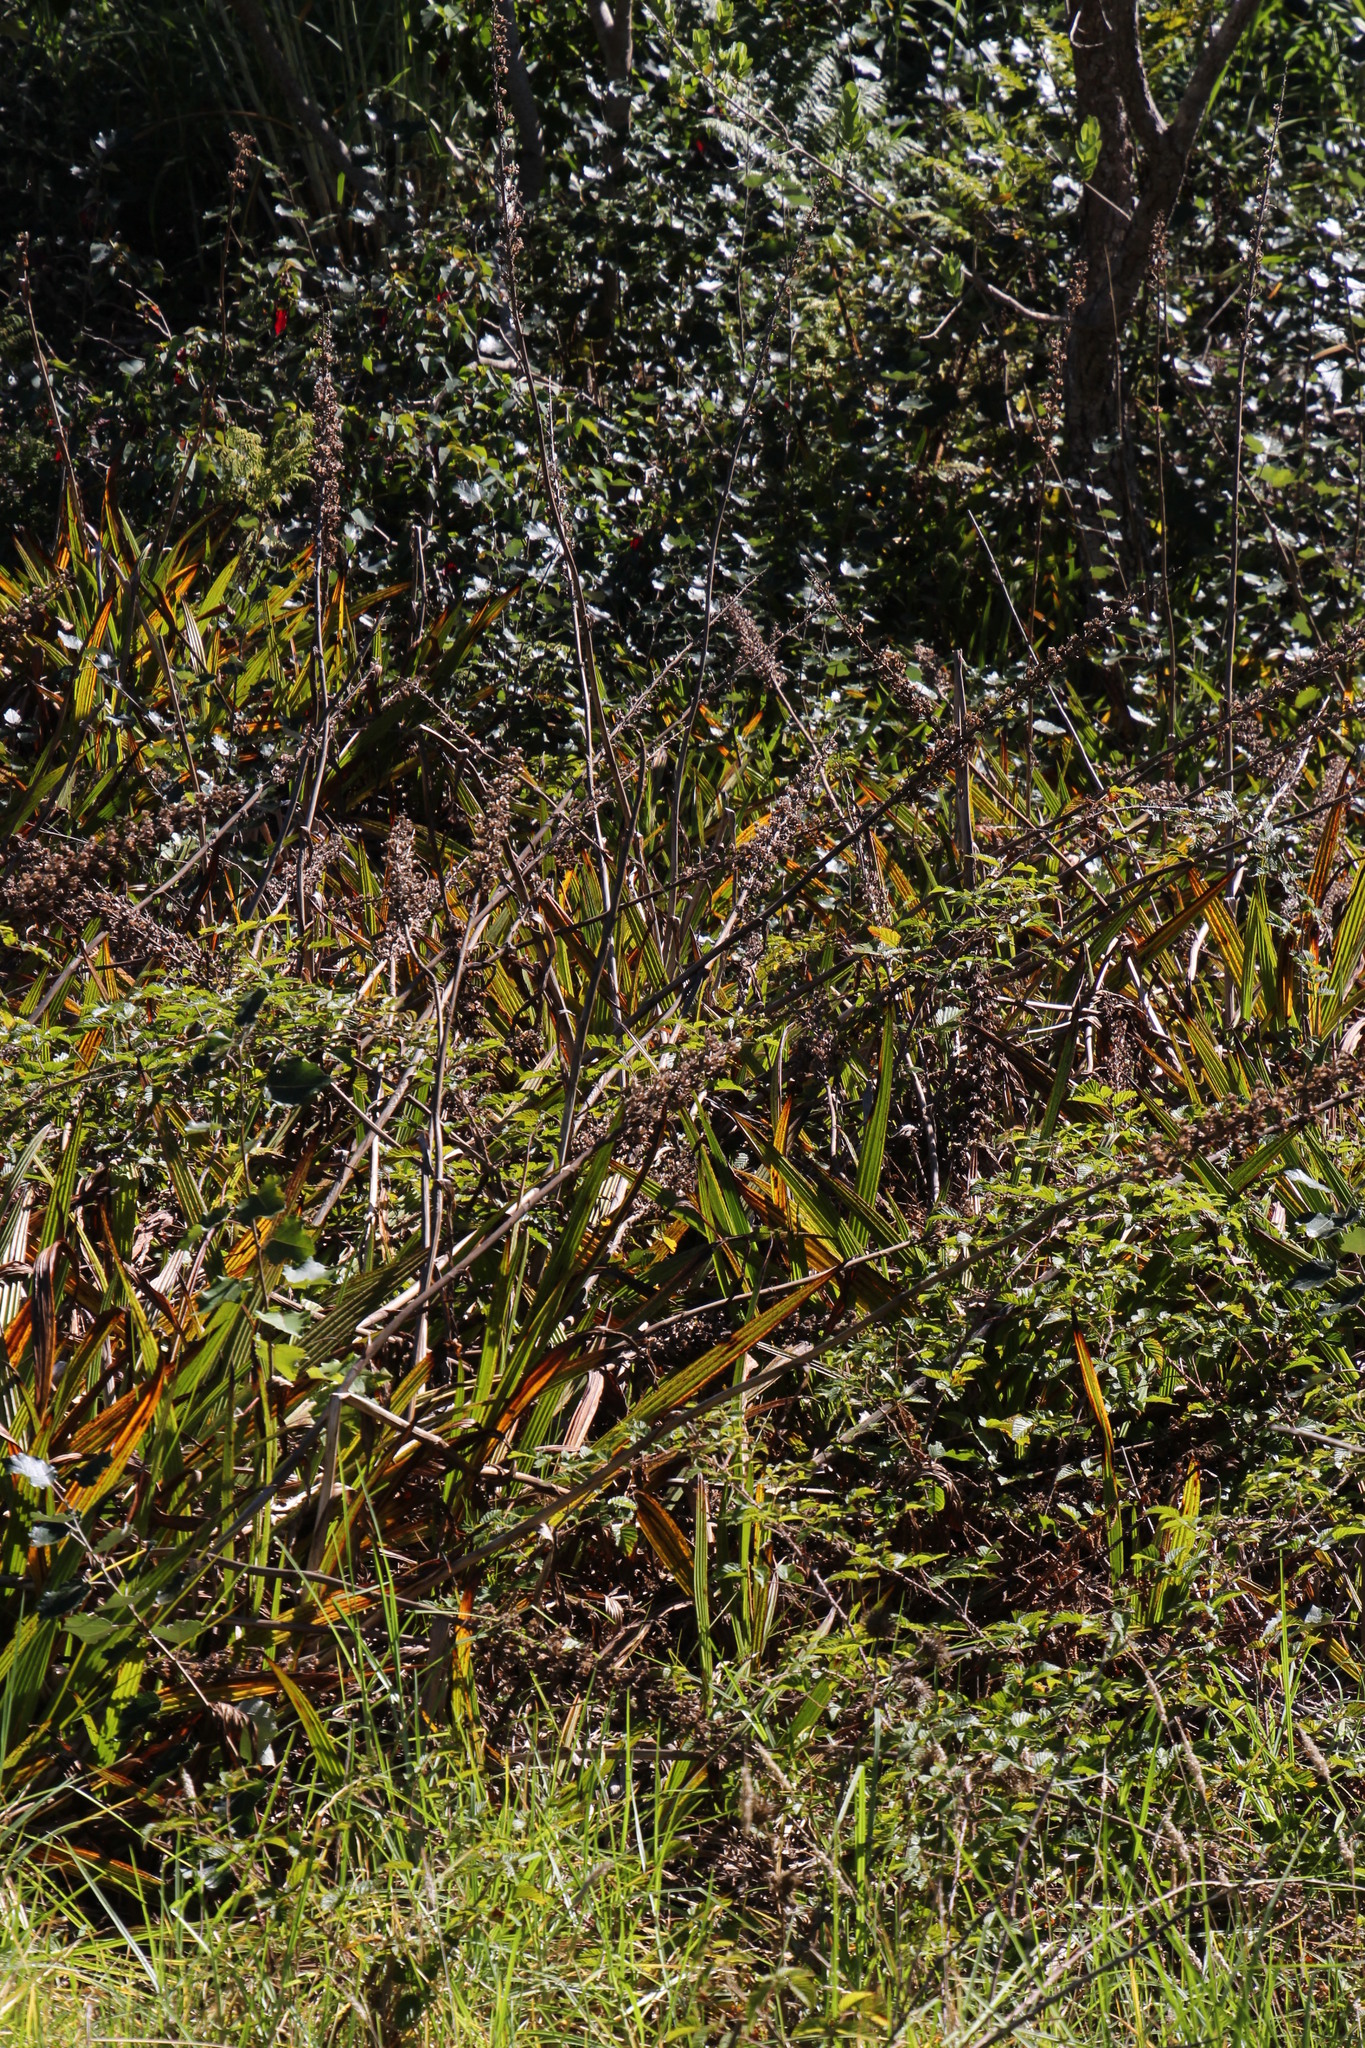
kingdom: Plantae
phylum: Tracheophyta
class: Liliopsida
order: Commelinales
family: Haemodoraceae
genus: Wachendorfia
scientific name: Wachendorfia thyrsiflora
